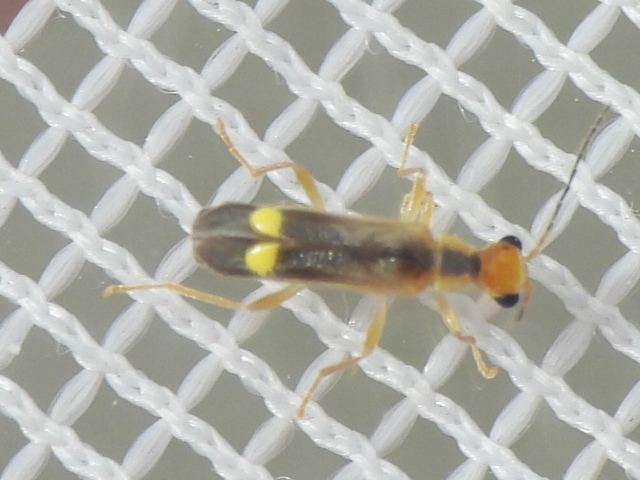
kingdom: Animalia
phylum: Arthropoda
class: Insecta
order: Coleoptera
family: Cantharidae
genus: Malthinus
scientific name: Malthinus occipitalis
